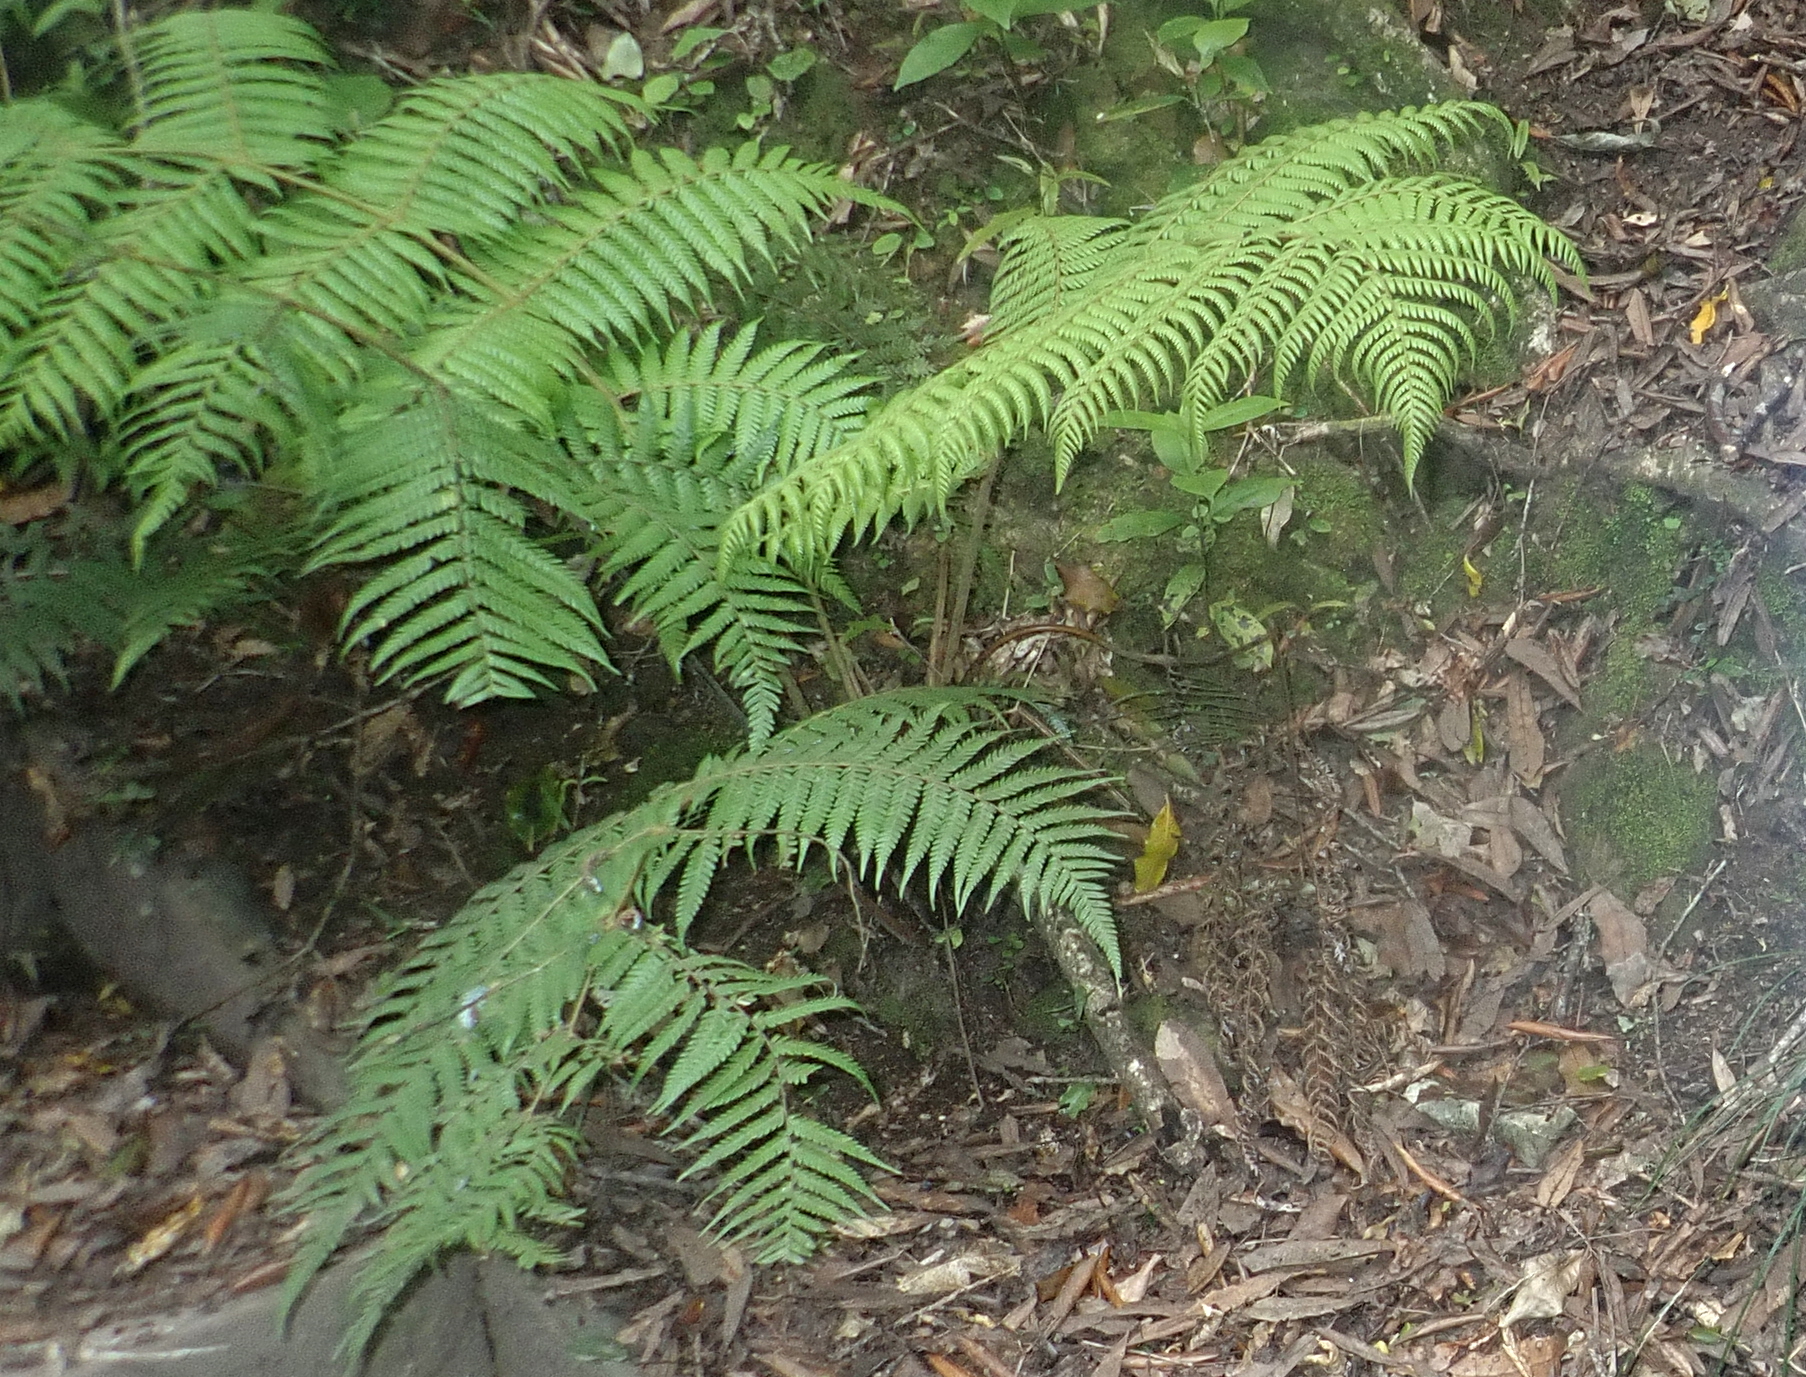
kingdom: Plantae
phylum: Tracheophyta
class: Polypodiopsida
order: Cyatheales
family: Cyatheaceae
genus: Alsophila
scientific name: Alsophila dealbata
